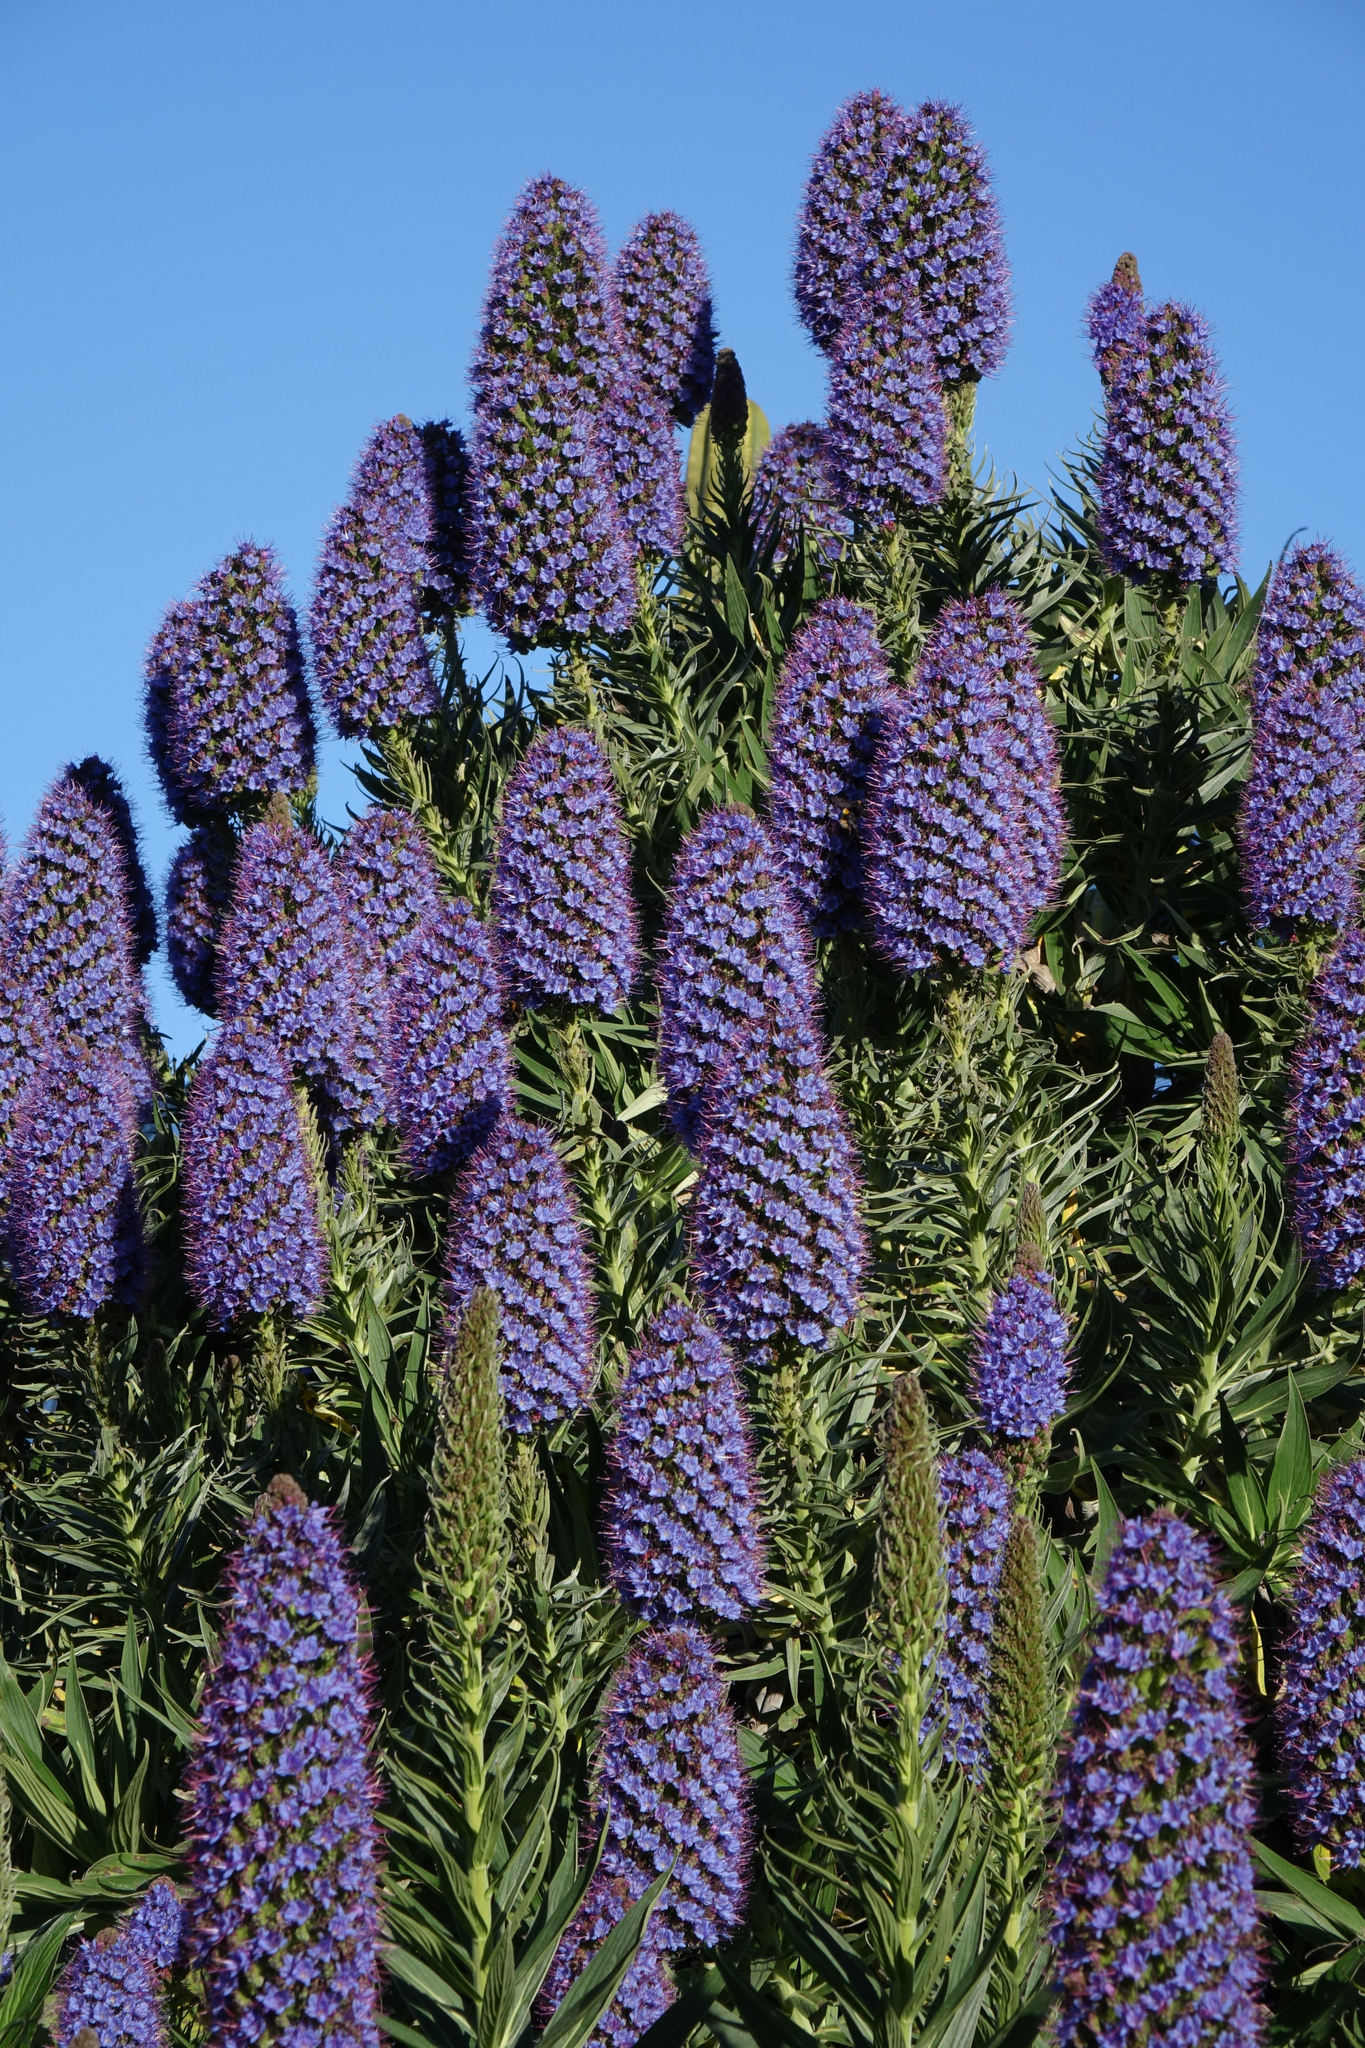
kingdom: Plantae
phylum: Tracheophyta
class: Magnoliopsida
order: Boraginales
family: Boraginaceae
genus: Echium
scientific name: Echium candicans
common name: Pride of madeira
